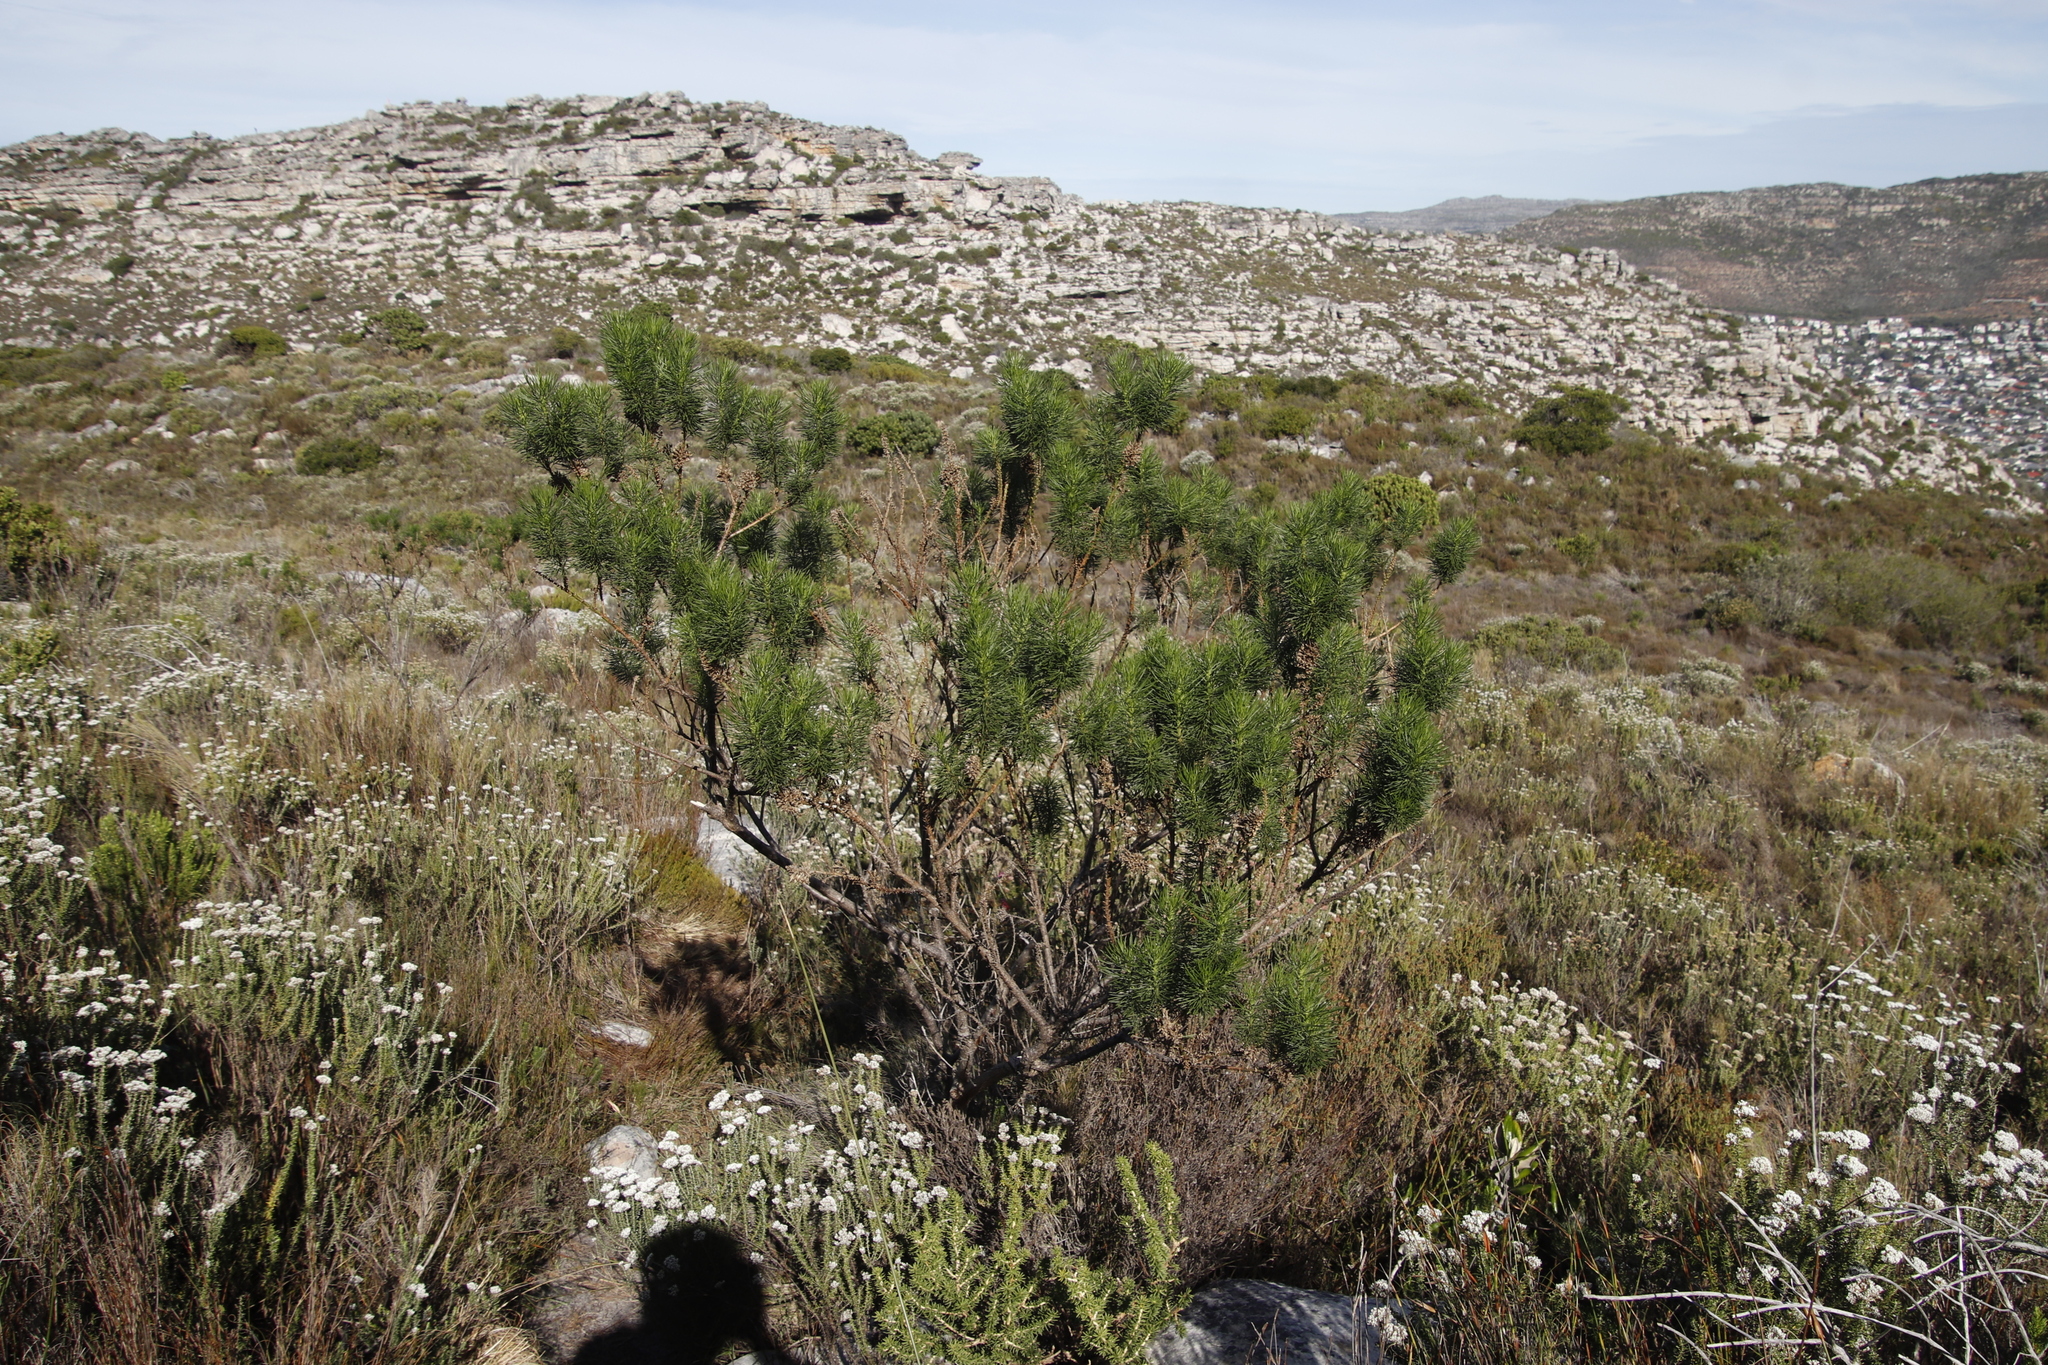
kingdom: Plantae
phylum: Tracheophyta
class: Magnoliopsida
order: Fabales
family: Fabaceae
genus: Psoralea
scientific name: Psoralea pinnata
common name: African scurfpea
